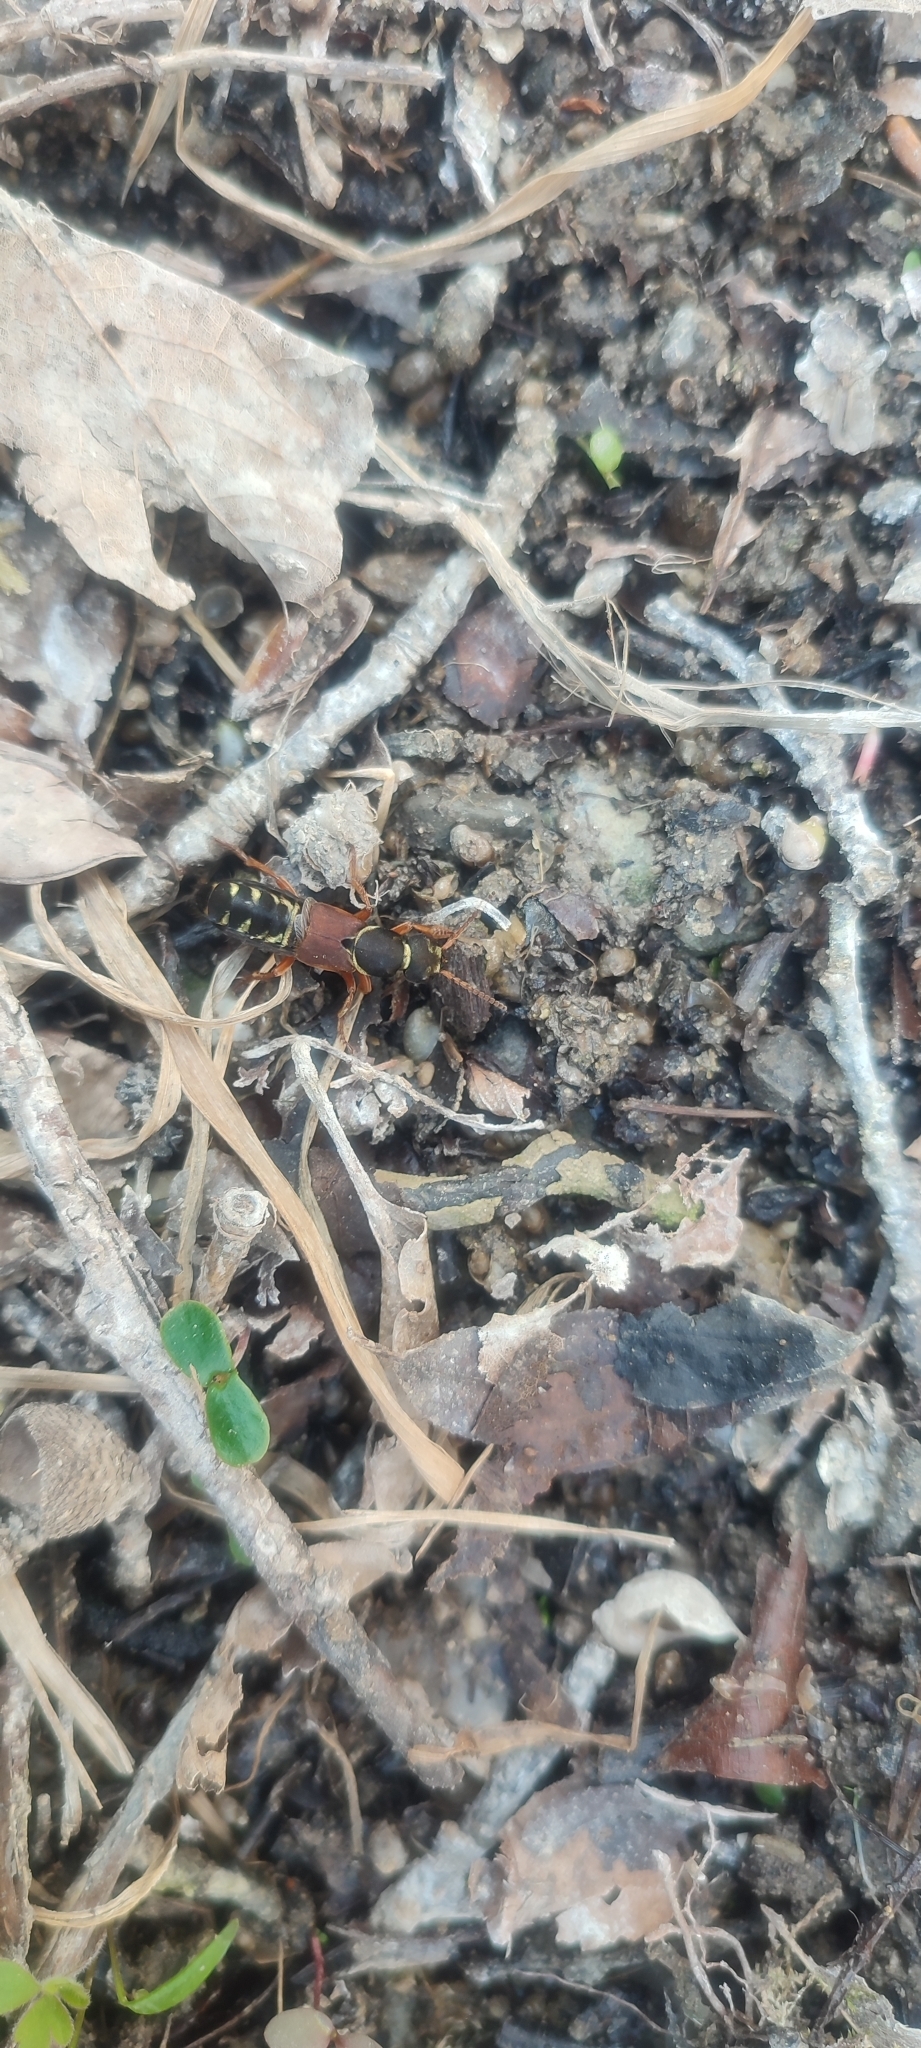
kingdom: Animalia
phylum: Arthropoda
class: Insecta
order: Coleoptera
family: Staphylinidae
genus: Staphylinus
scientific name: Staphylinus dimidiaticornis
